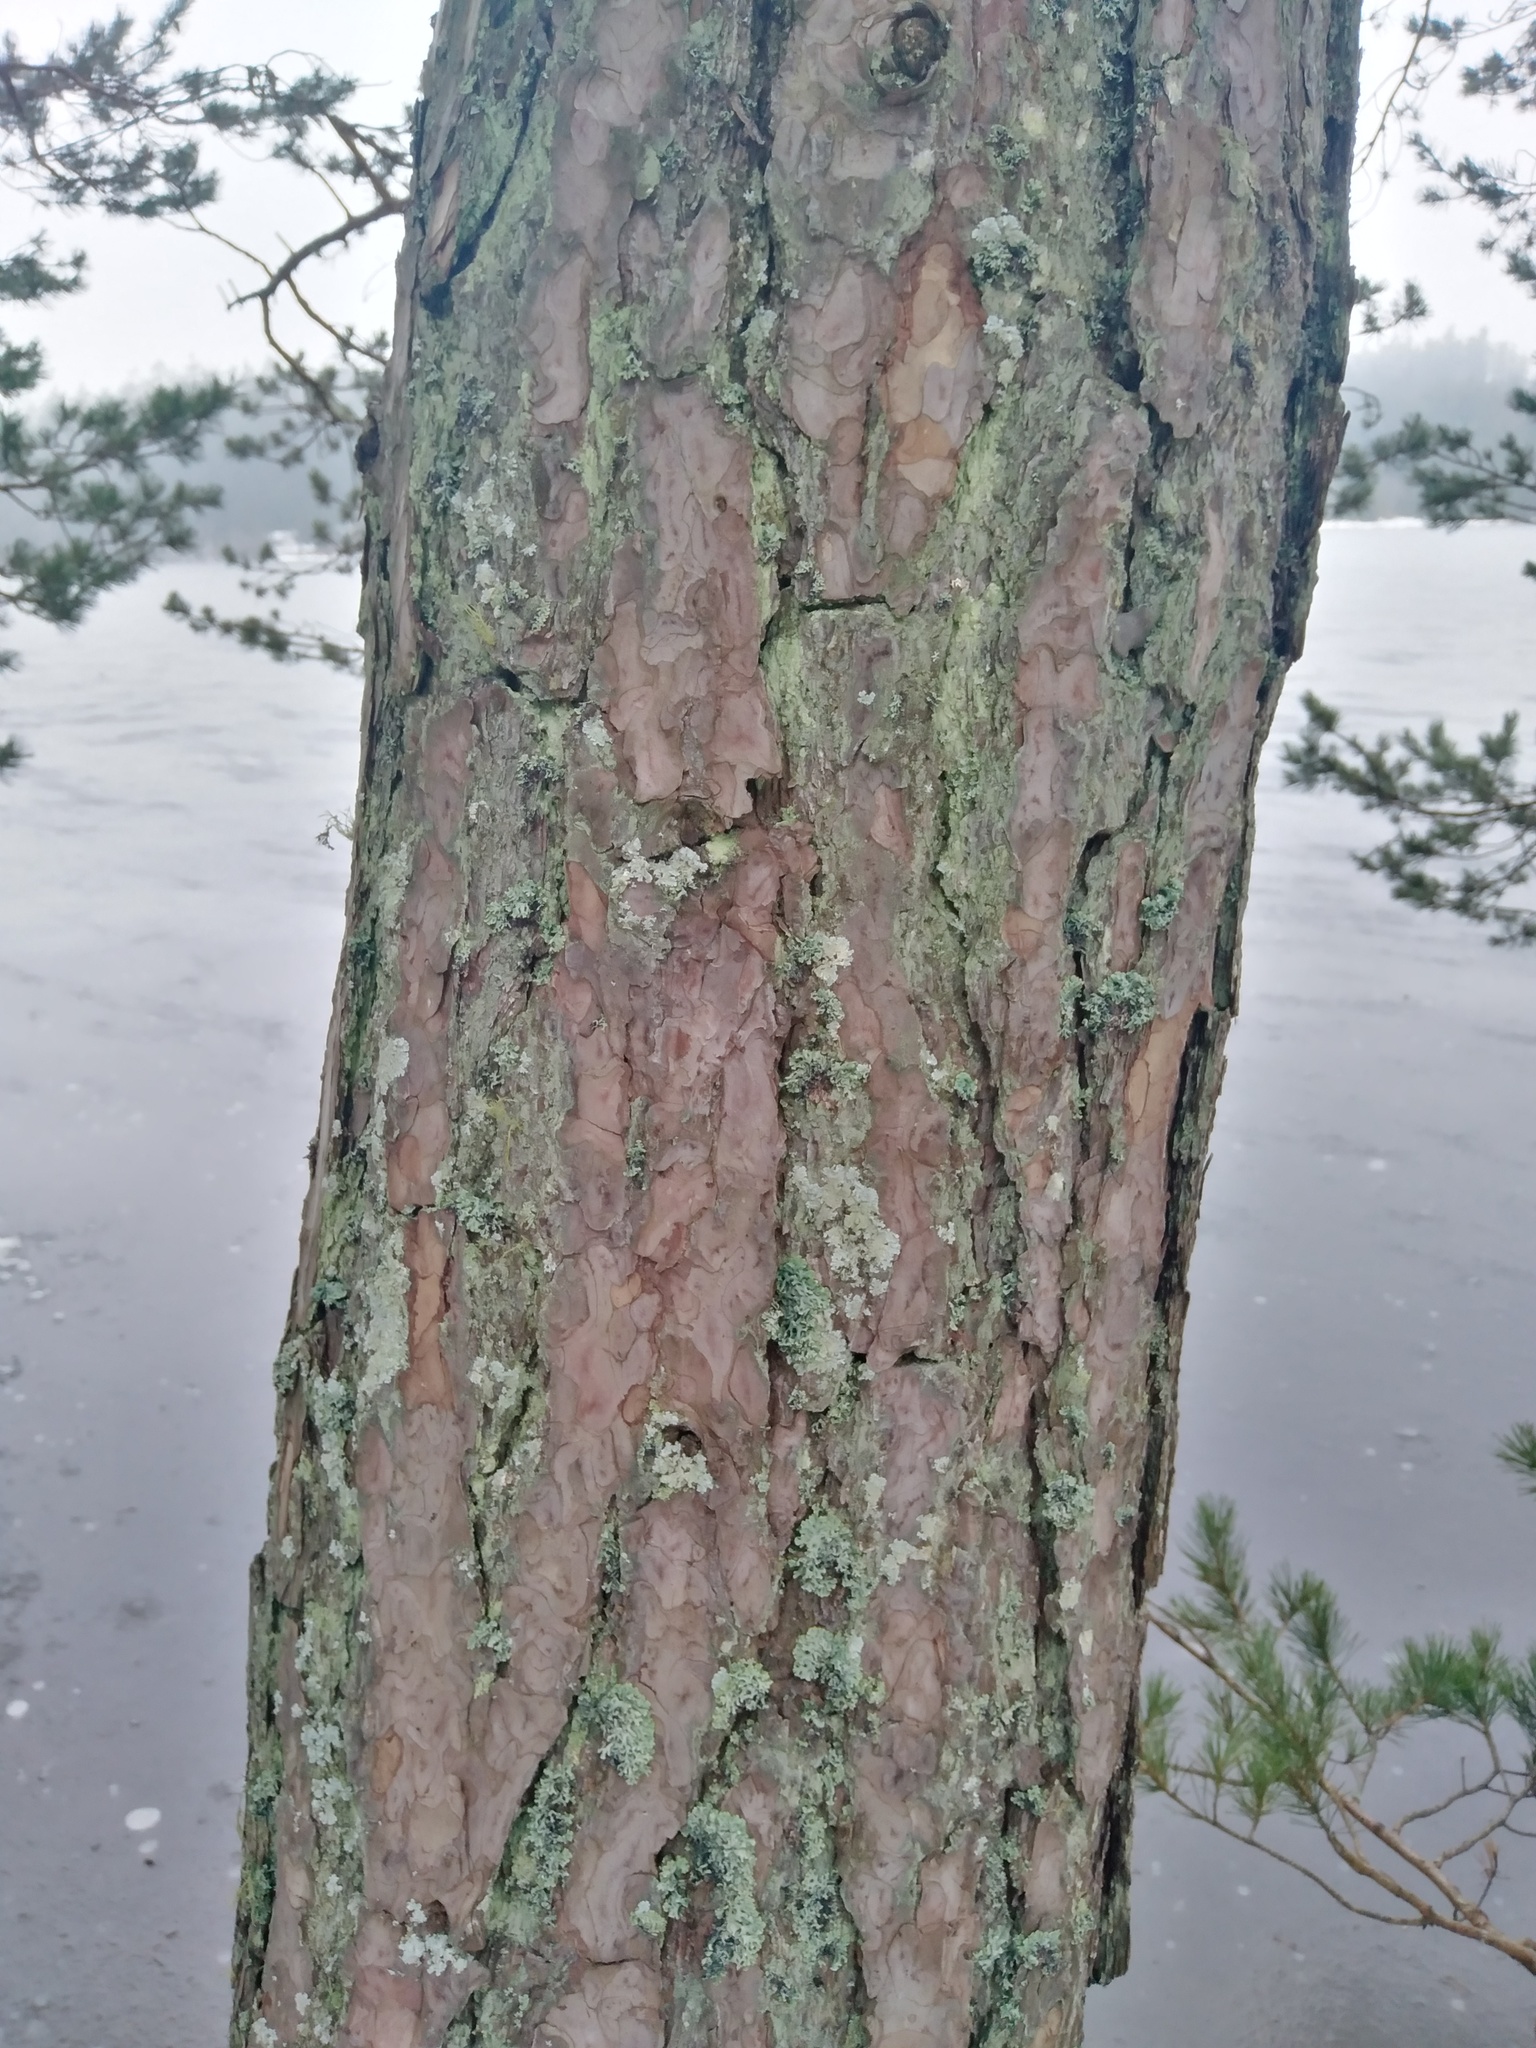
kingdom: Plantae
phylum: Tracheophyta
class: Pinopsida
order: Pinales
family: Pinaceae
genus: Pinus
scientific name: Pinus sylvestris
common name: Scots pine
